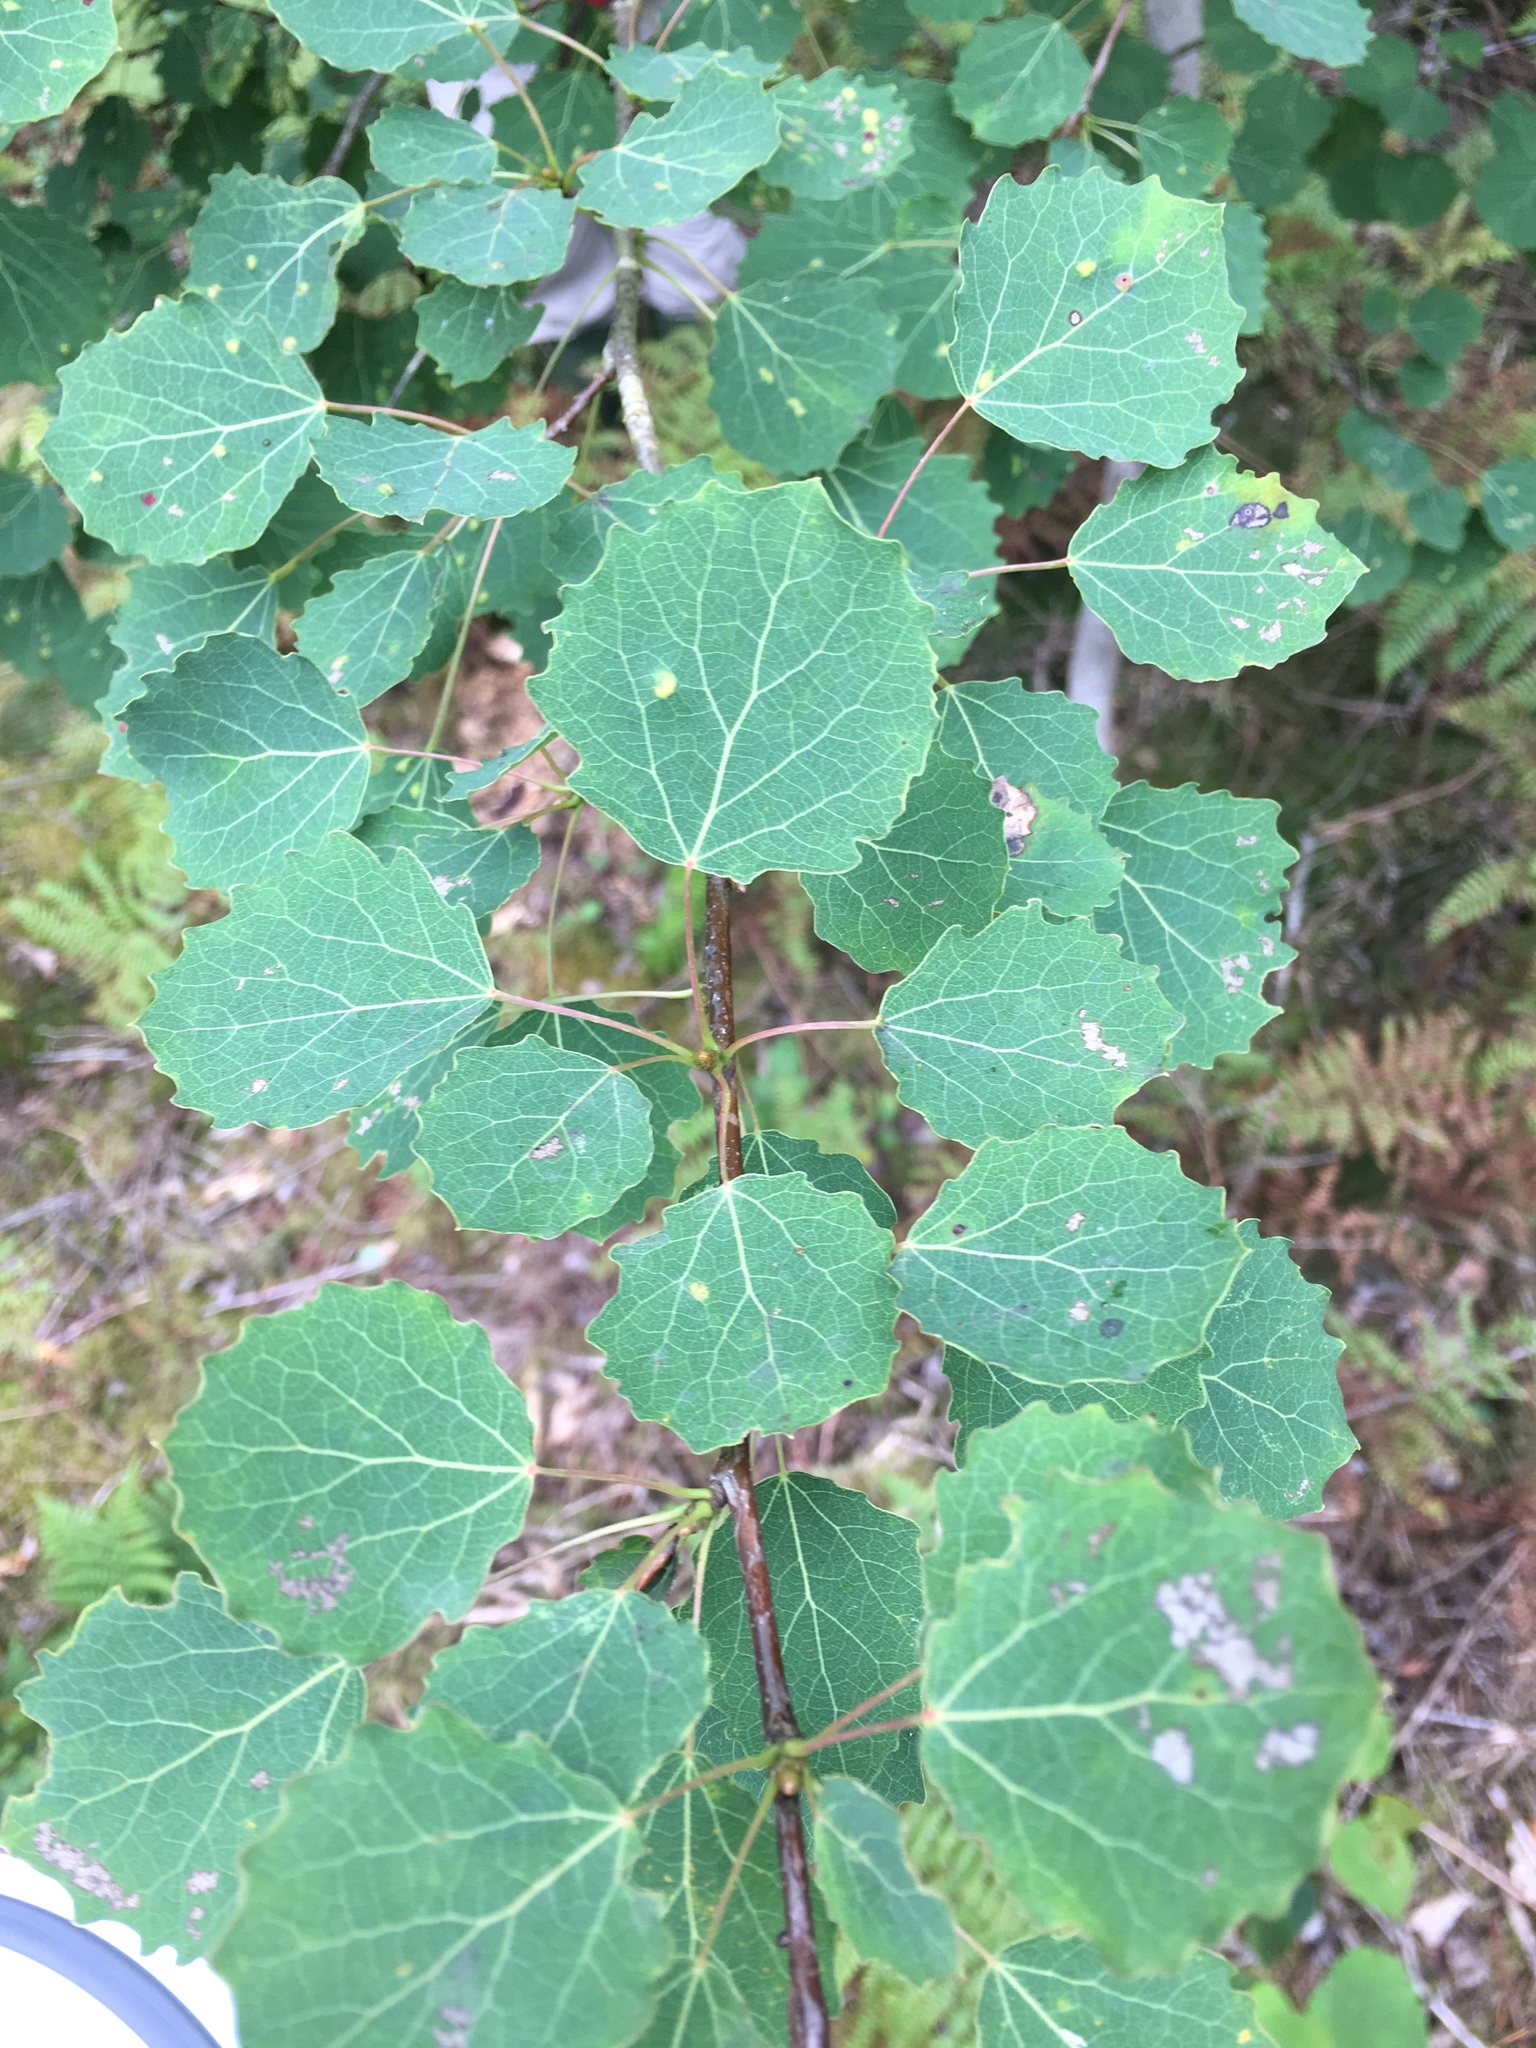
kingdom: Plantae
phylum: Tracheophyta
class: Magnoliopsida
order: Malpighiales
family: Salicaceae
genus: Populus
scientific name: Populus tremula
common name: European aspen
